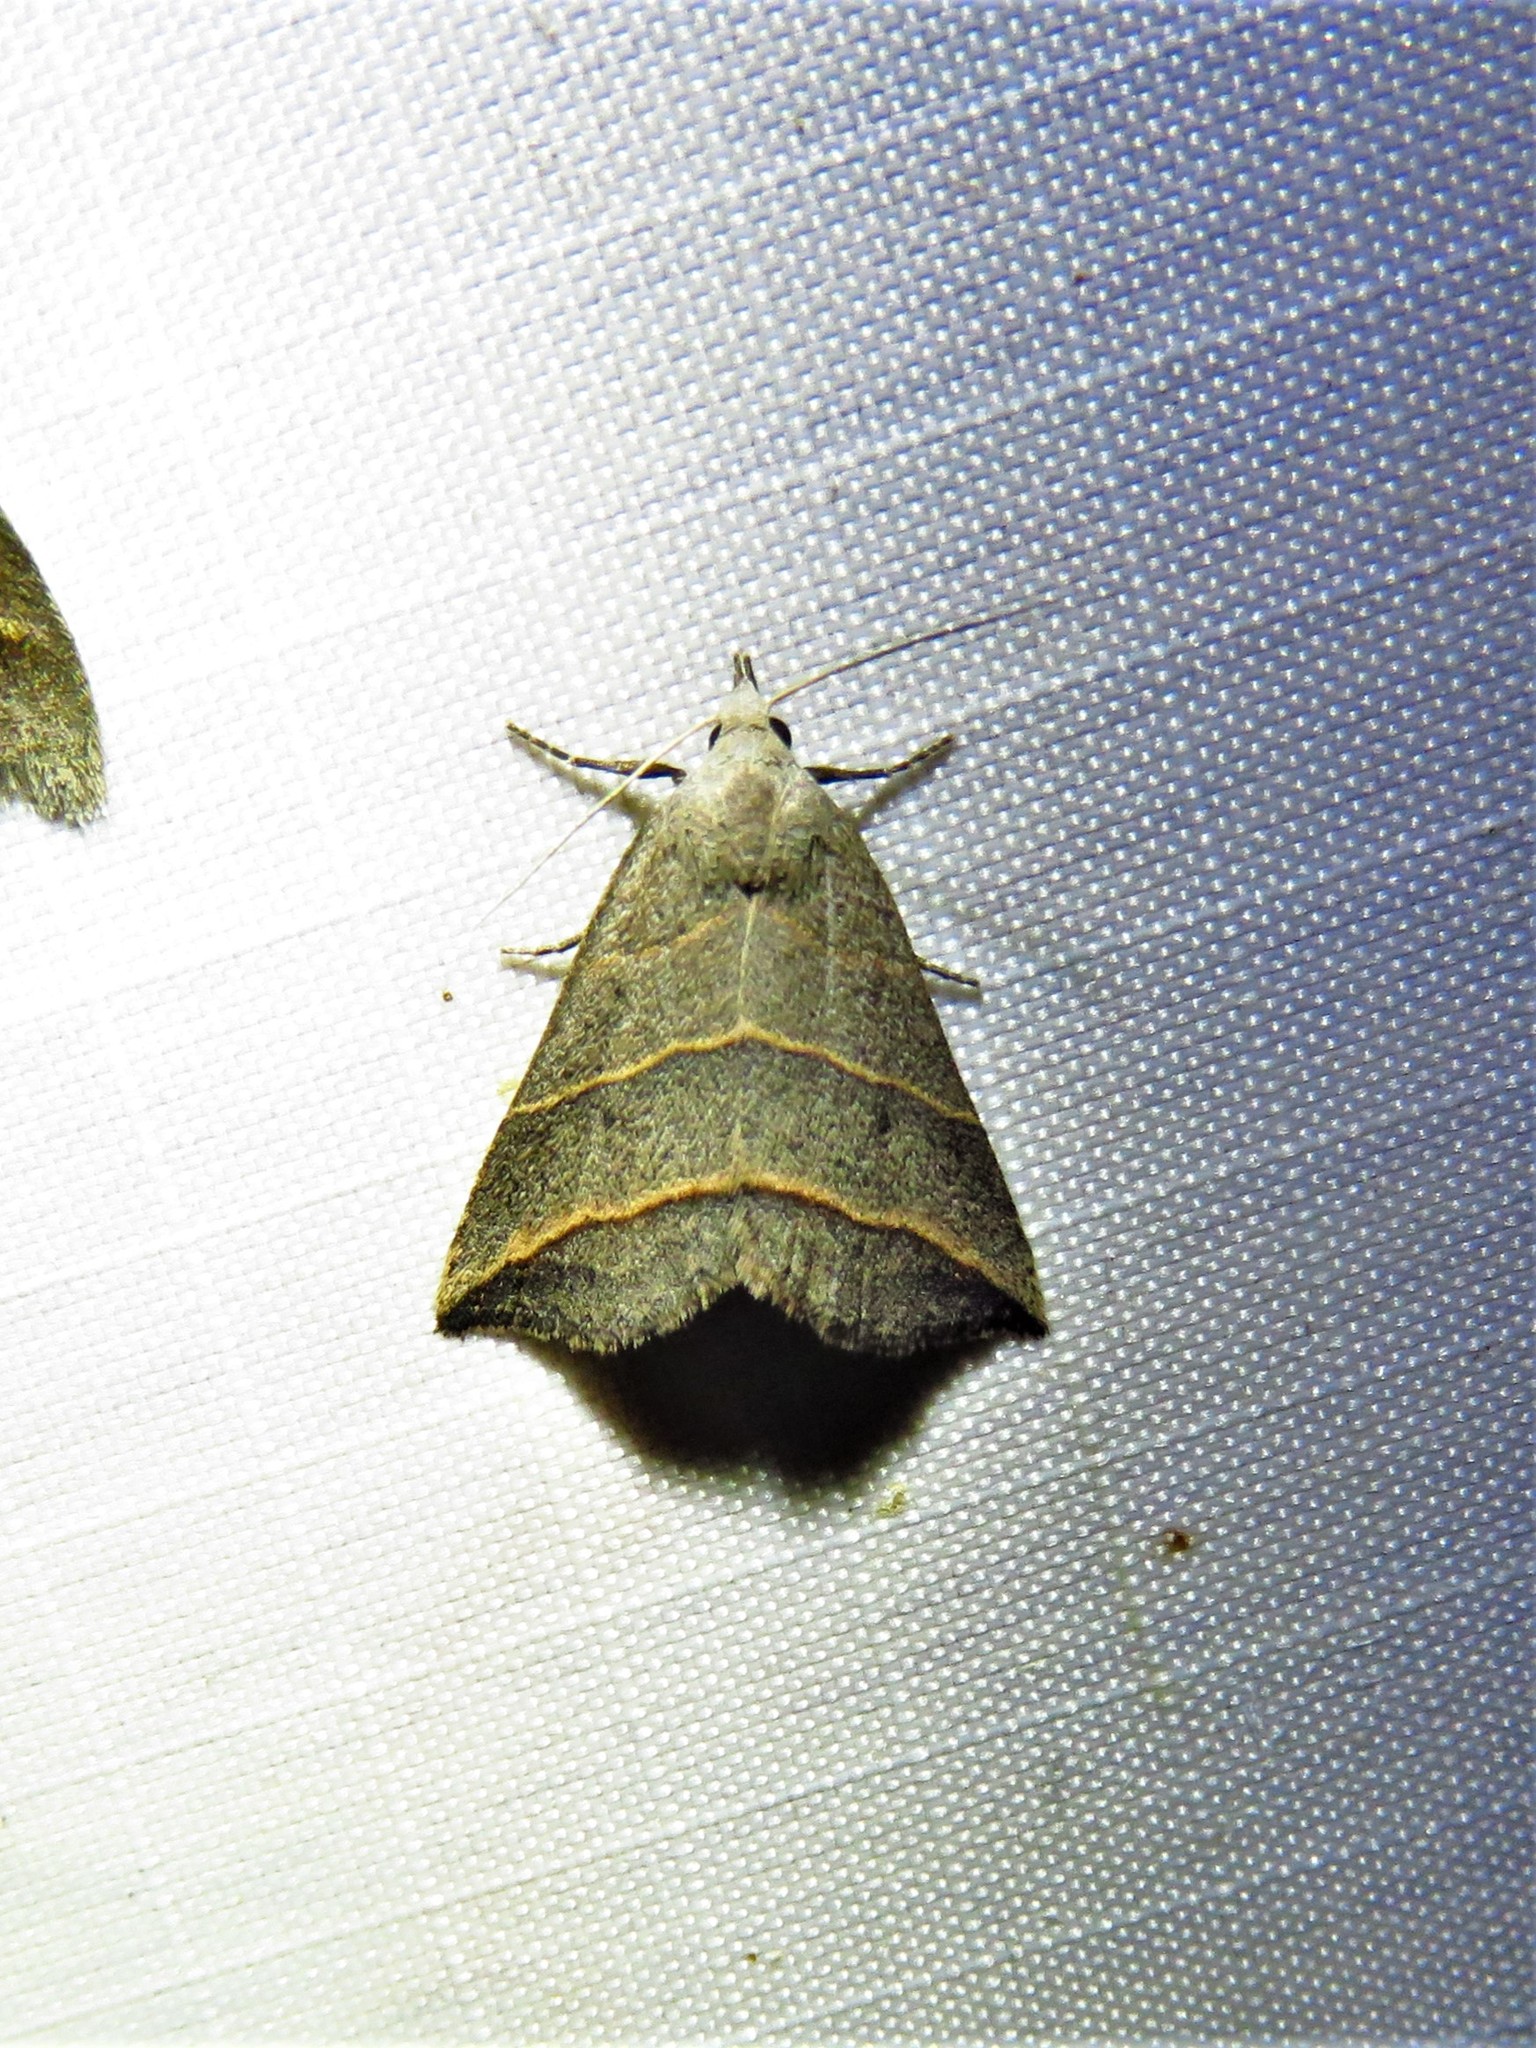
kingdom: Animalia
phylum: Arthropoda
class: Insecta
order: Lepidoptera
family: Erebidae
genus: Colobochyla
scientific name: Colobochyla interpuncta
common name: Yellow-lined owlet
